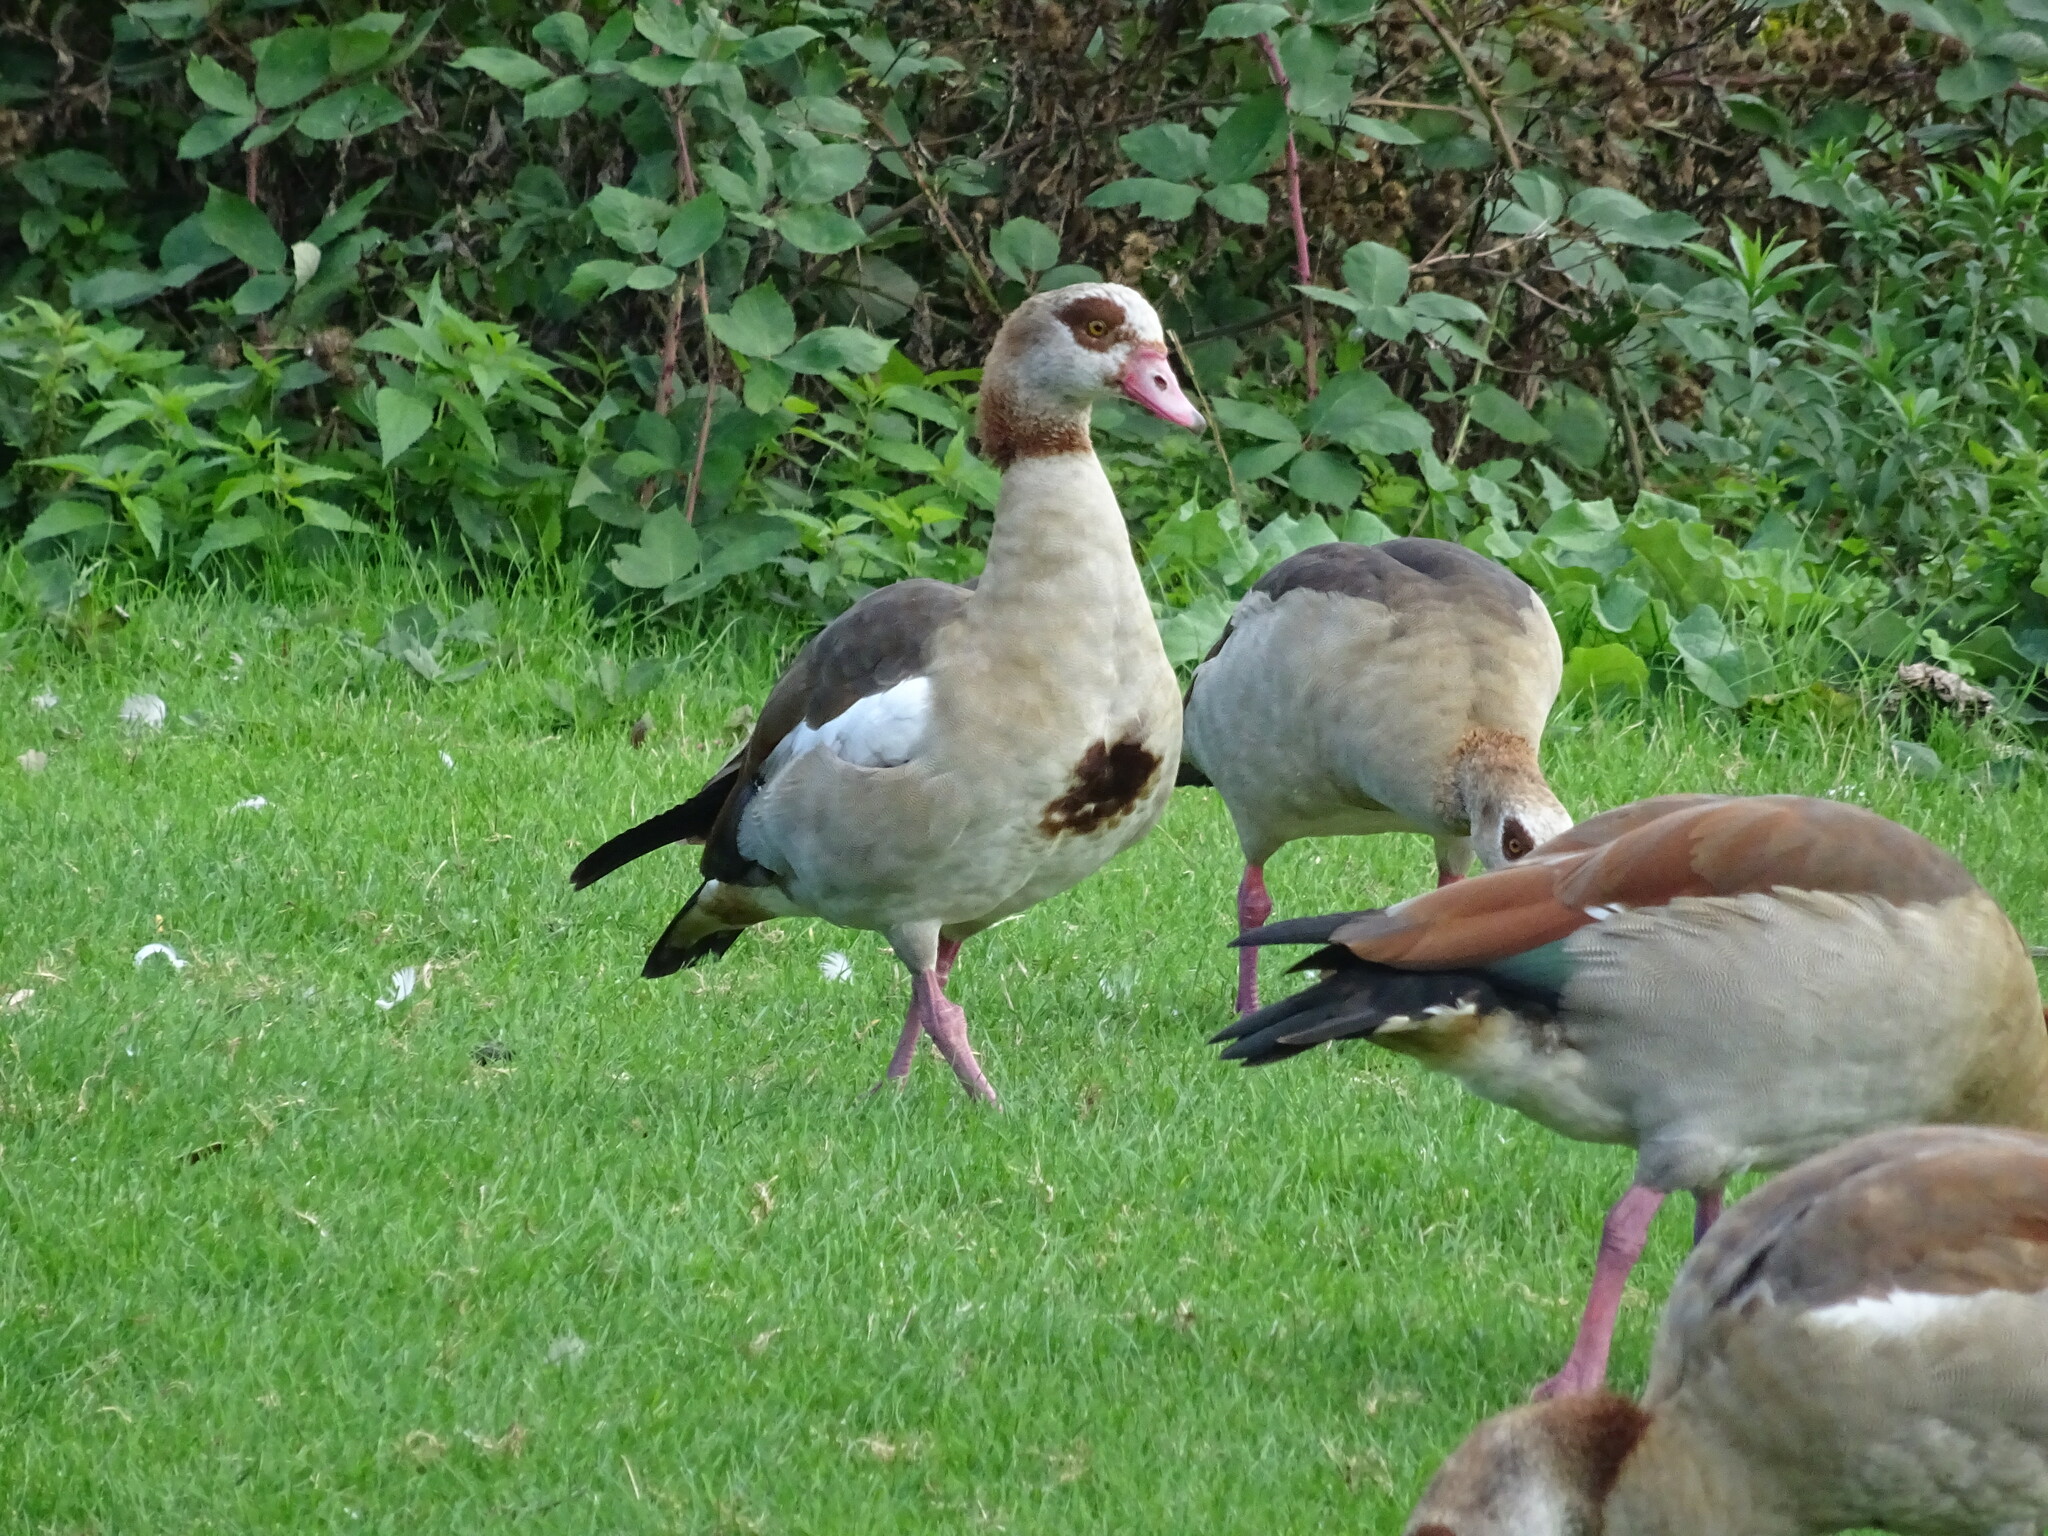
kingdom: Animalia
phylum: Chordata
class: Aves
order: Anseriformes
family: Anatidae
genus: Alopochen
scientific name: Alopochen aegyptiaca
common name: Egyptian goose
